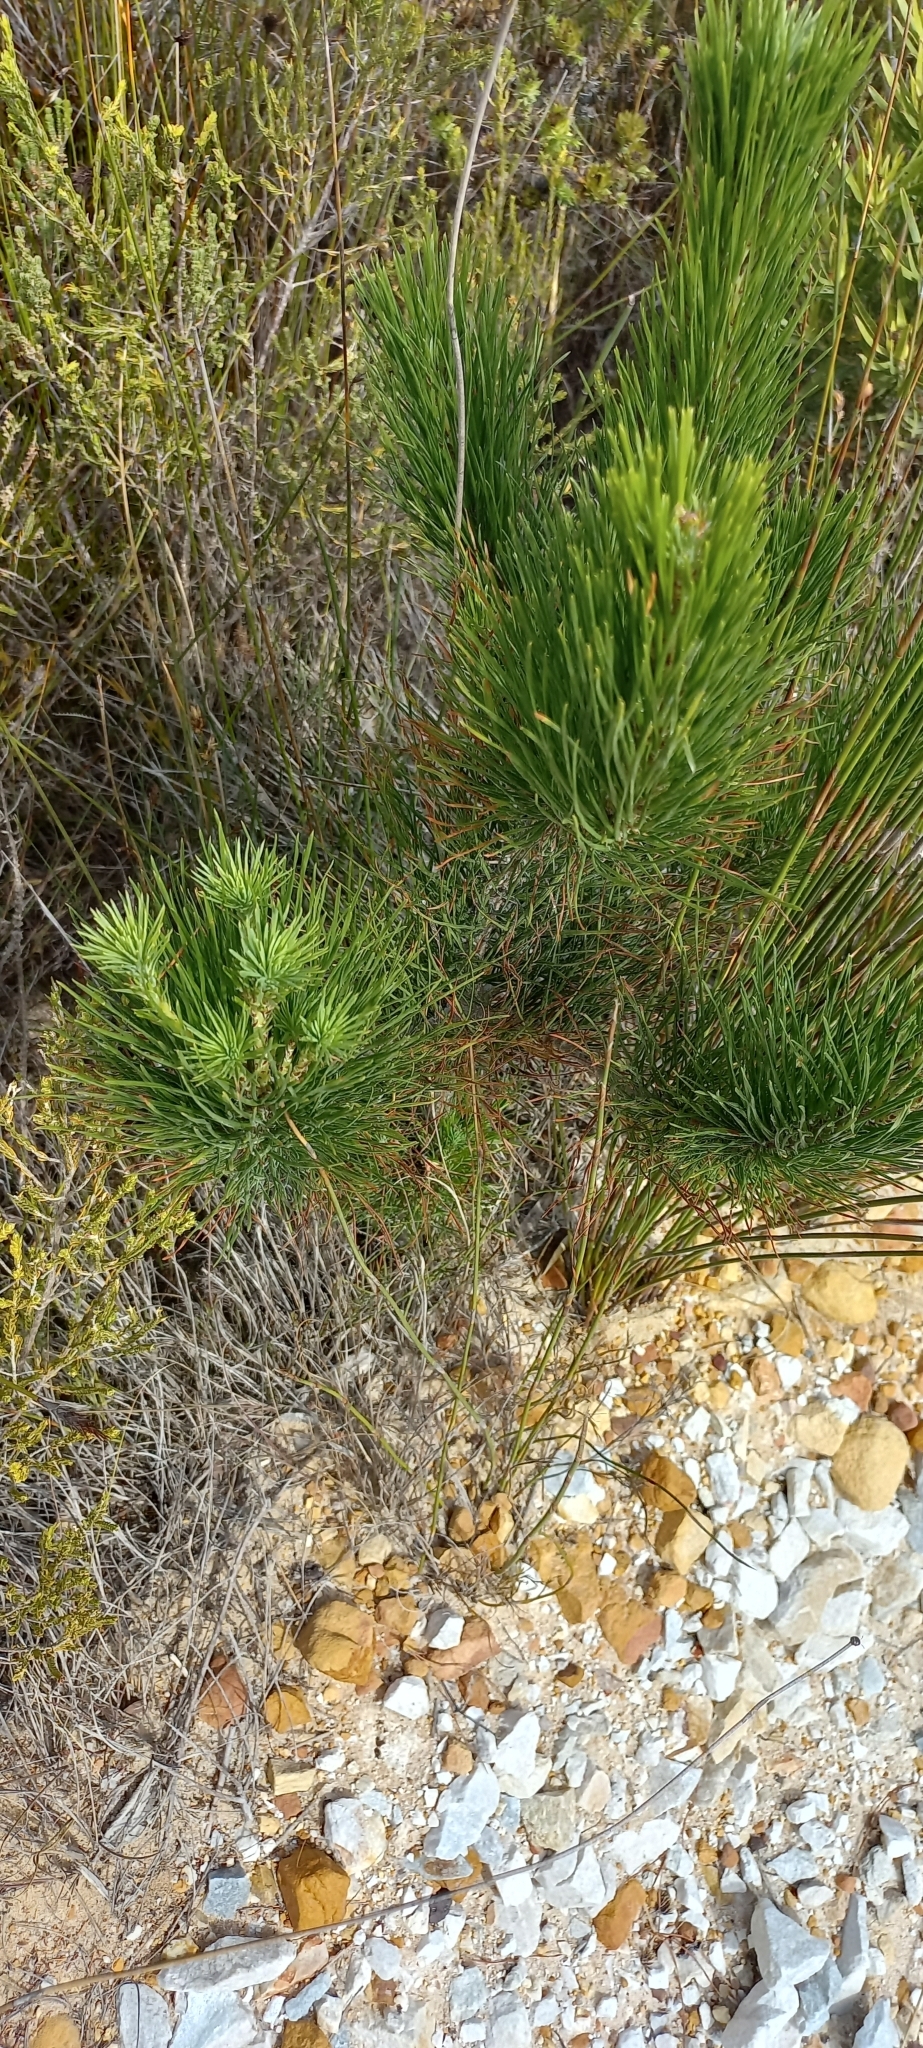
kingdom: Plantae
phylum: Tracheophyta
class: Pinopsida
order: Pinales
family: Pinaceae
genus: Pinus
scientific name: Pinus radiata
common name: Monterey pine
